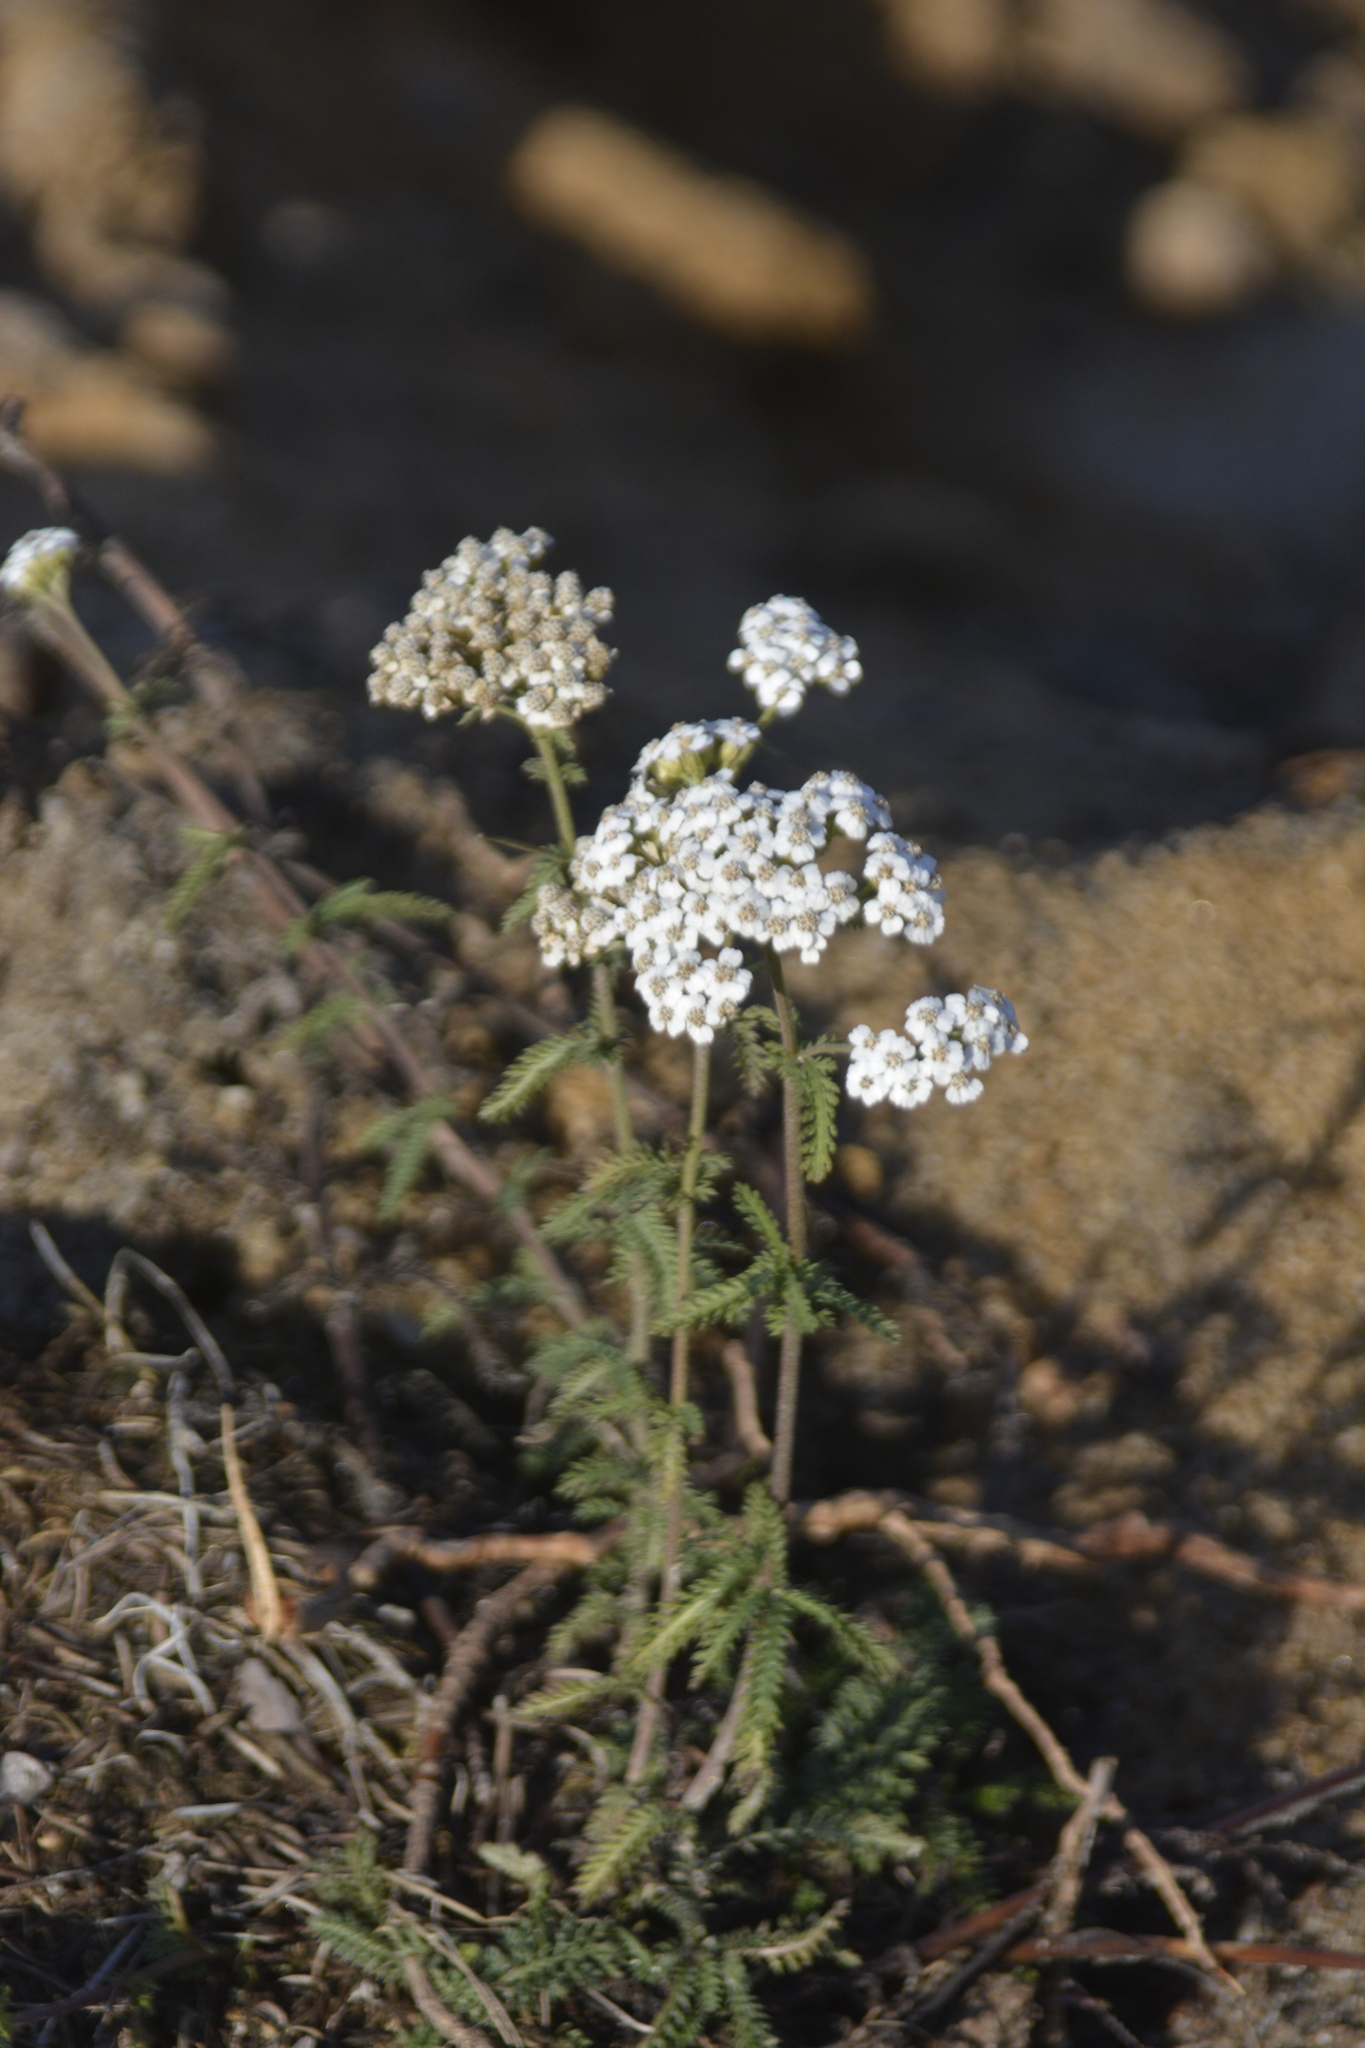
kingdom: Plantae
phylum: Tracheophyta
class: Magnoliopsida
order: Asterales
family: Asteraceae
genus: Achillea
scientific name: Achillea millefolium
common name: Yarrow
